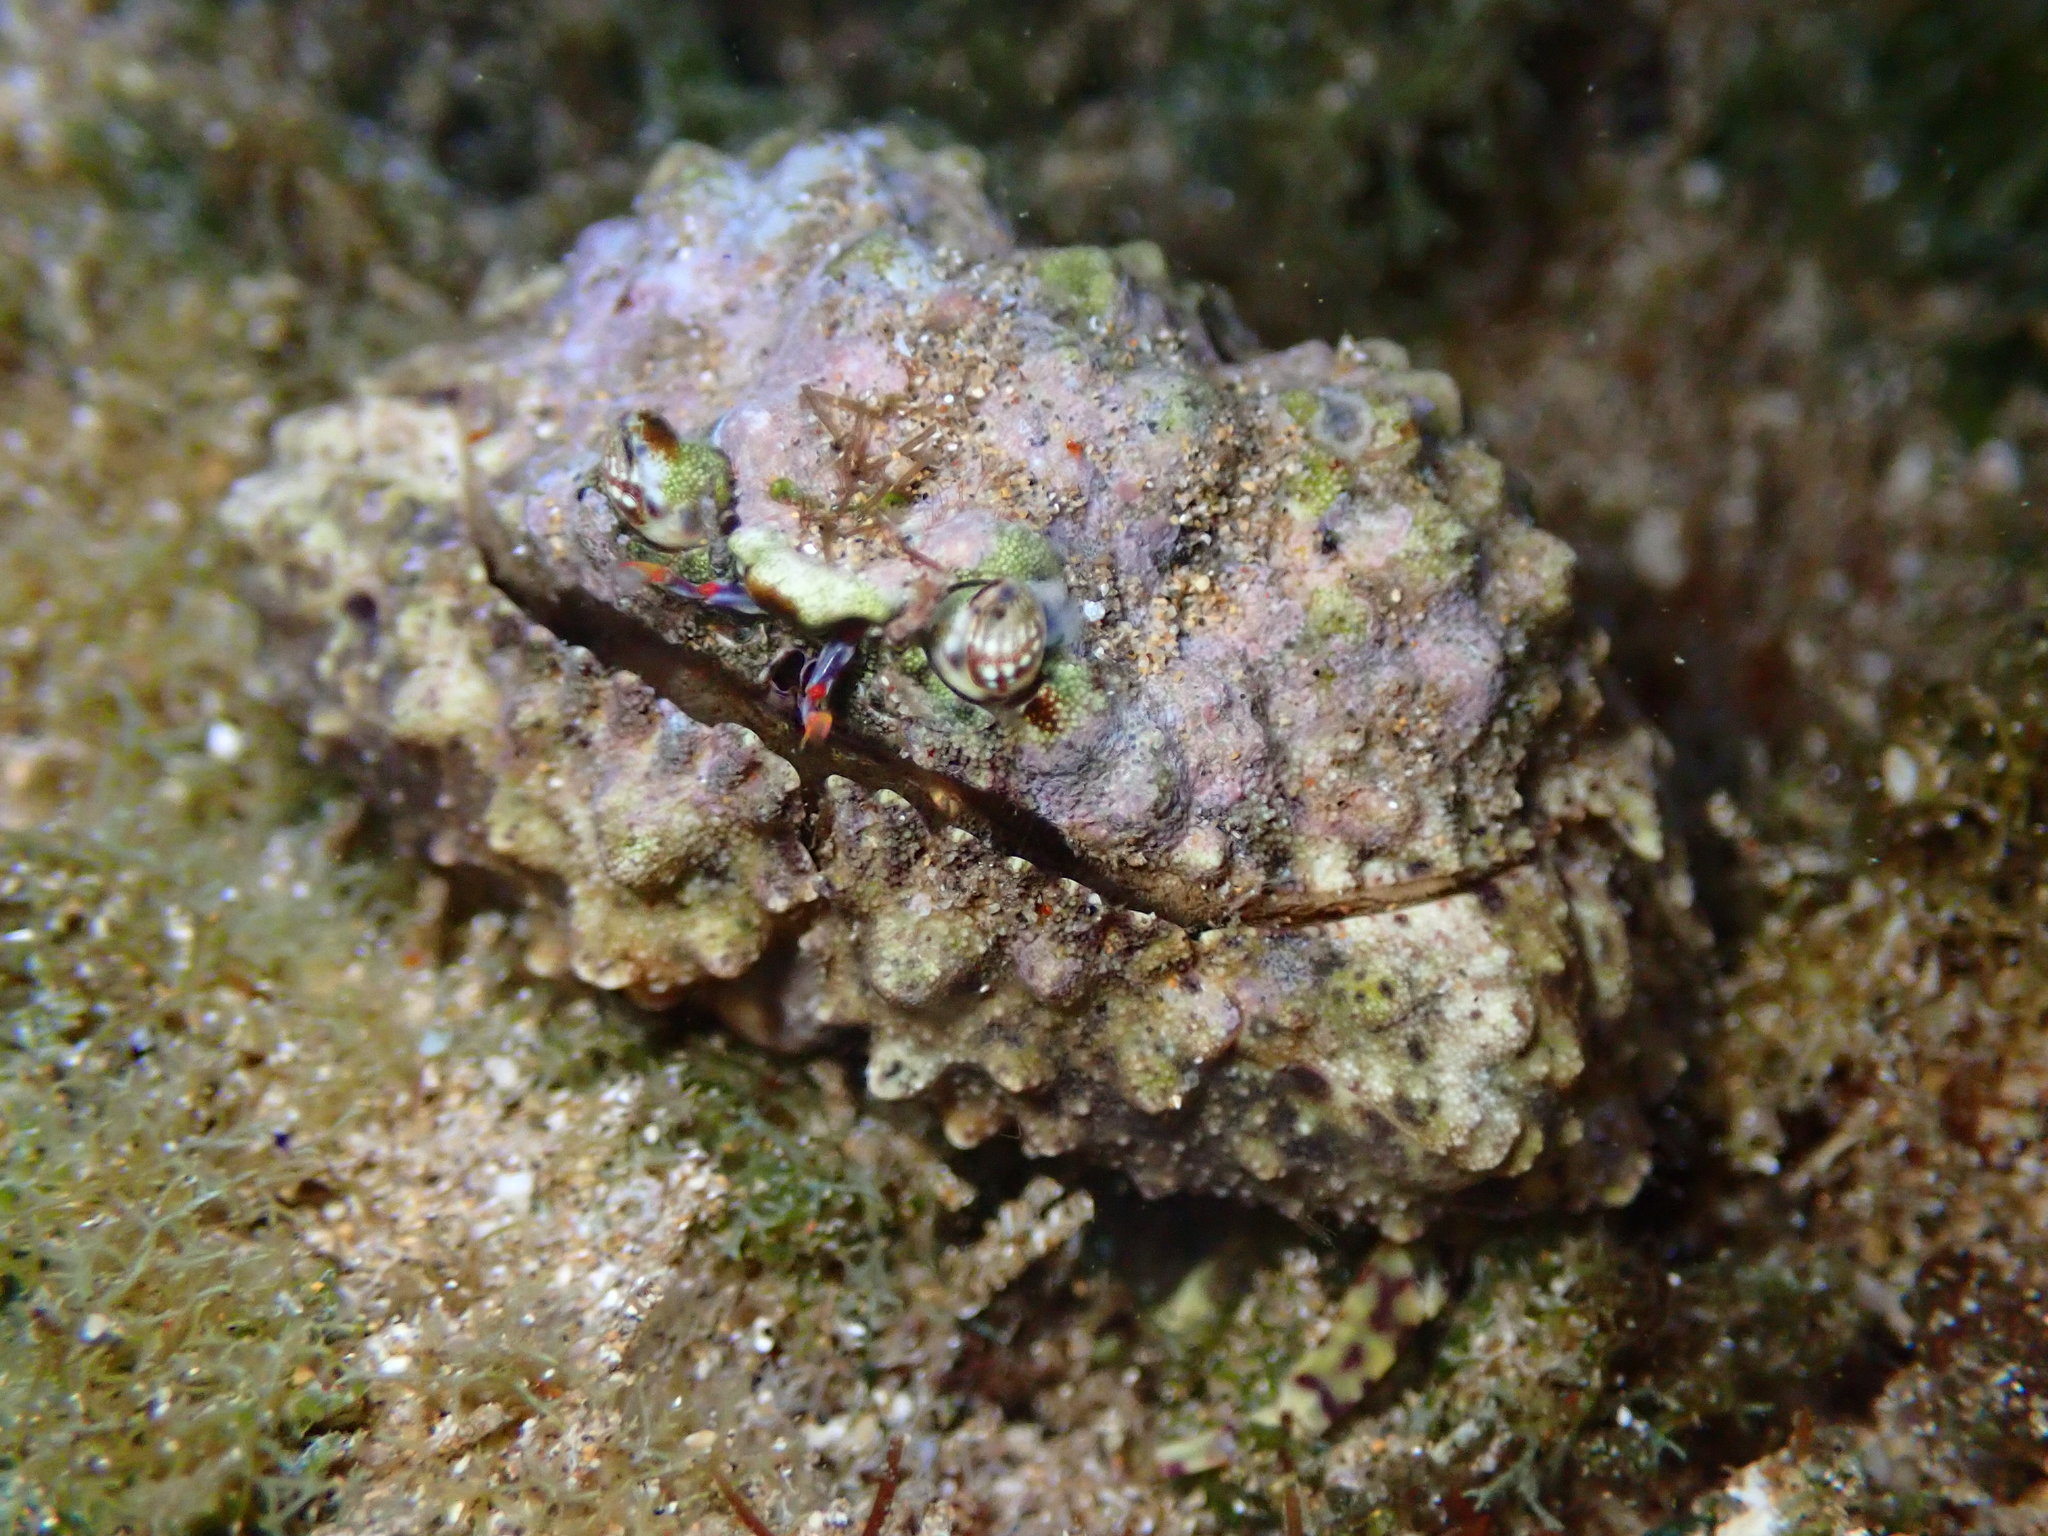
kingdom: Animalia
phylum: Arthropoda
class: Malacostraca
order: Decapoda
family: Calappidae
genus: Calappa
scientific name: Calappa gallus
